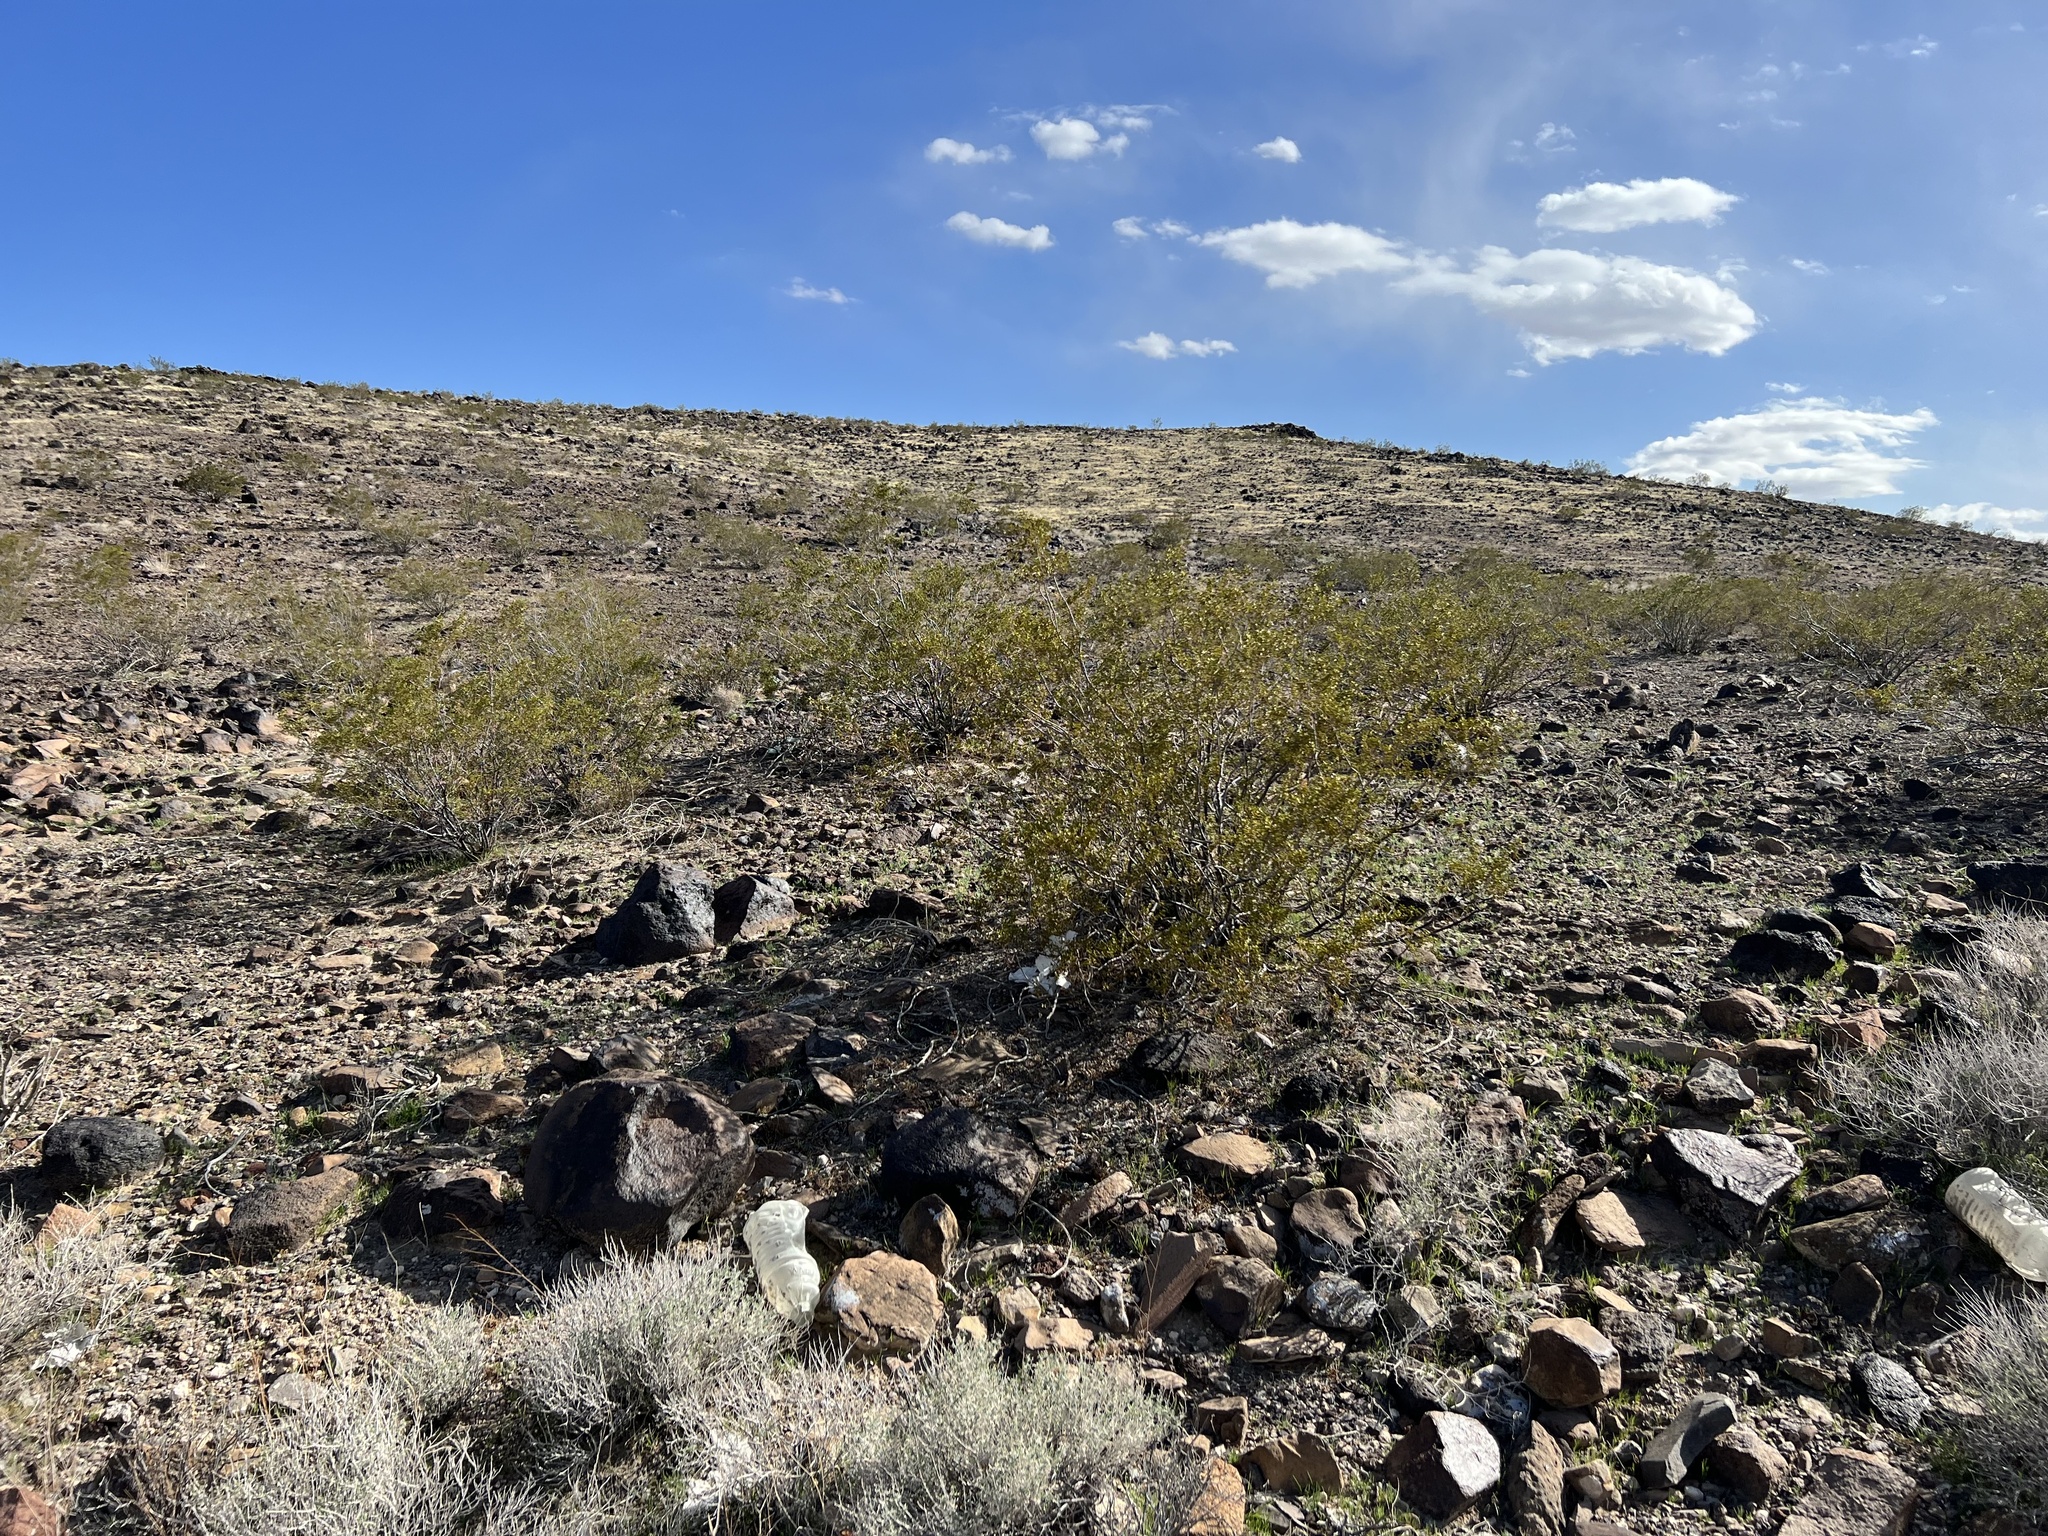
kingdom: Plantae
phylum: Tracheophyta
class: Magnoliopsida
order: Zygophyllales
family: Zygophyllaceae
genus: Larrea
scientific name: Larrea tridentata
